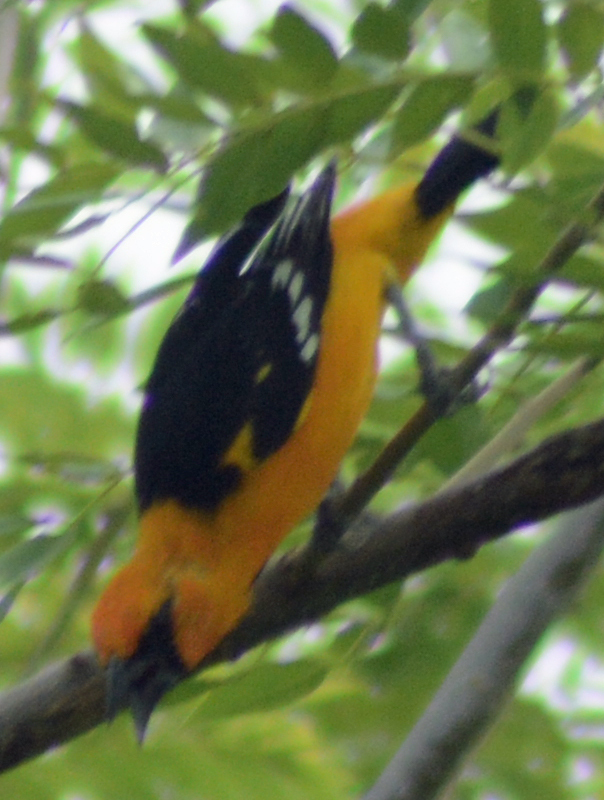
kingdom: Animalia
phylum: Chordata
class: Aves
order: Passeriformes
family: Icteridae
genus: Icterus
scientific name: Icterus gularis
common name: Altamira oriole
